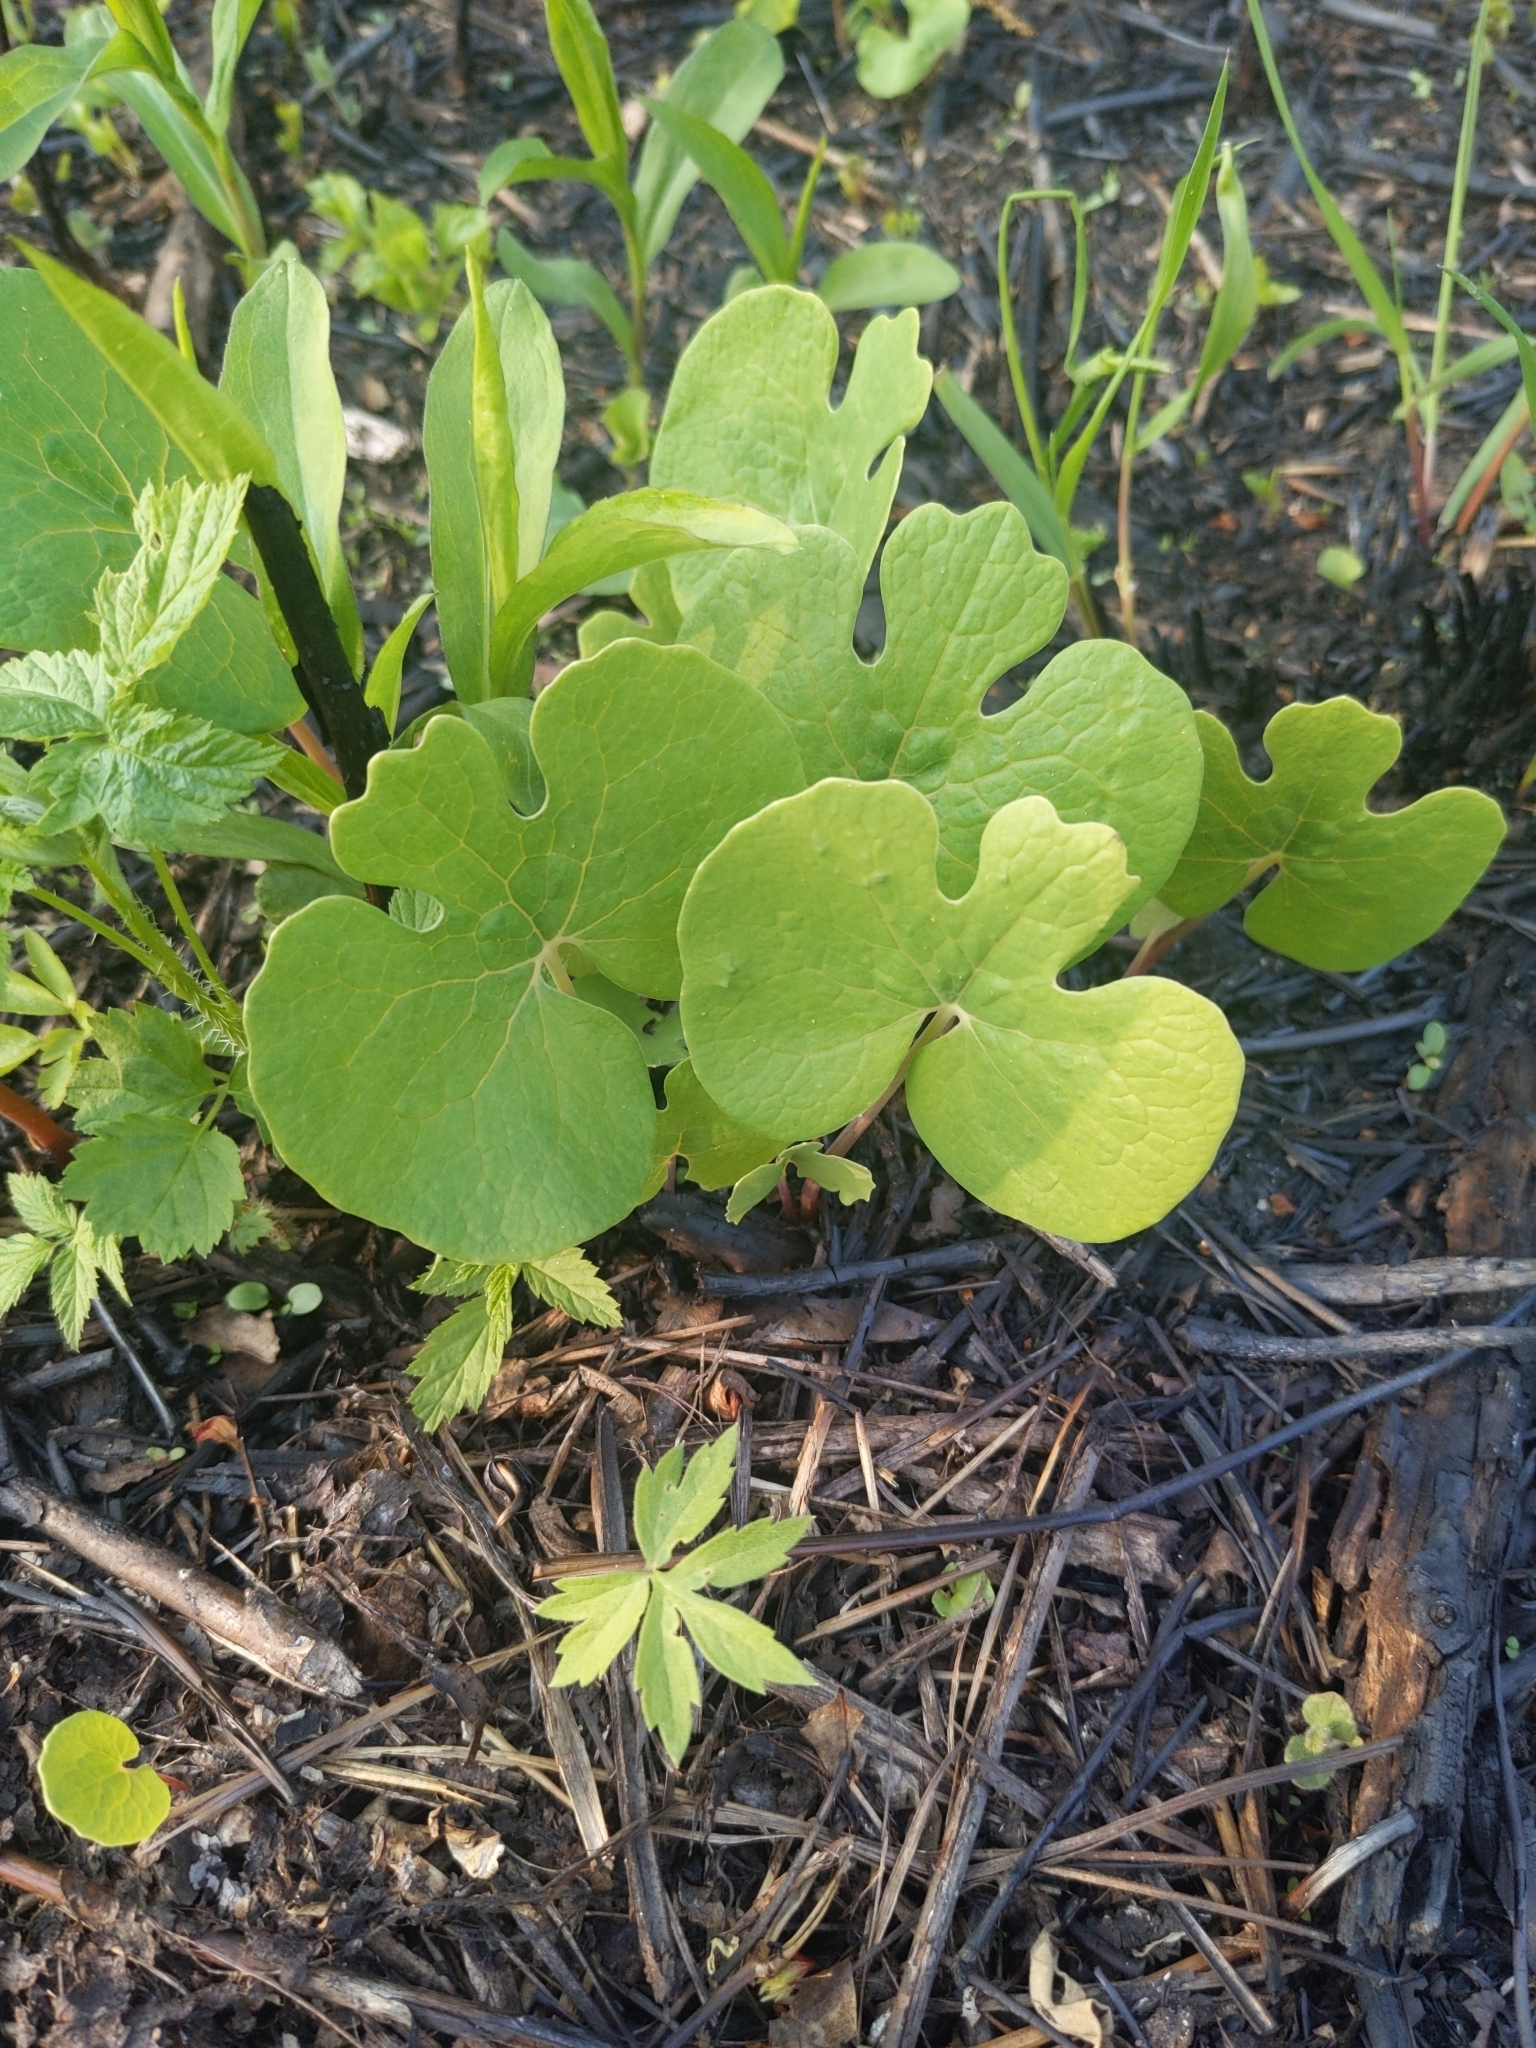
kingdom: Plantae
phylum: Tracheophyta
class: Magnoliopsida
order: Ranunculales
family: Papaveraceae
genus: Sanguinaria
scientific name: Sanguinaria canadensis
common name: Bloodroot
